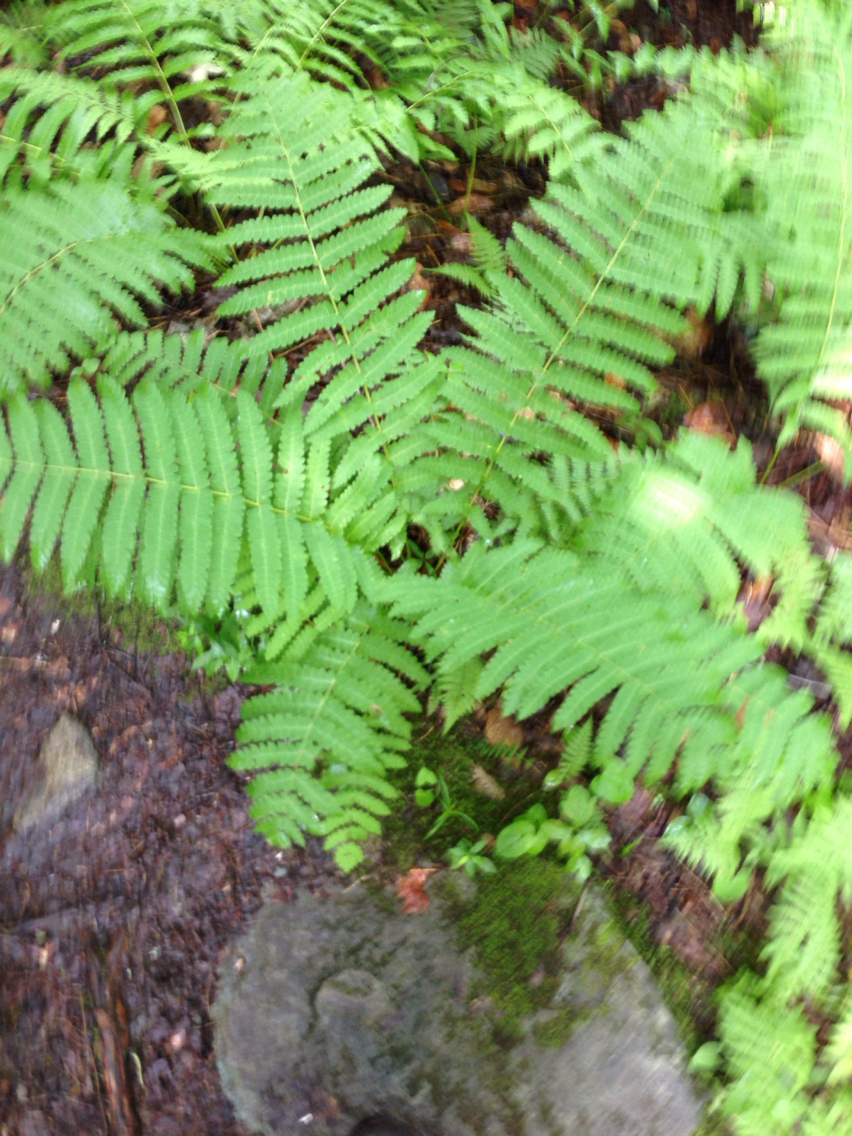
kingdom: Plantae
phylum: Tracheophyta
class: Polypodiopsida
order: Osmundales
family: Osmundaceae
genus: Claytosmunda
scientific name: Claytosmunda claytoniana
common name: Clayton's fern
